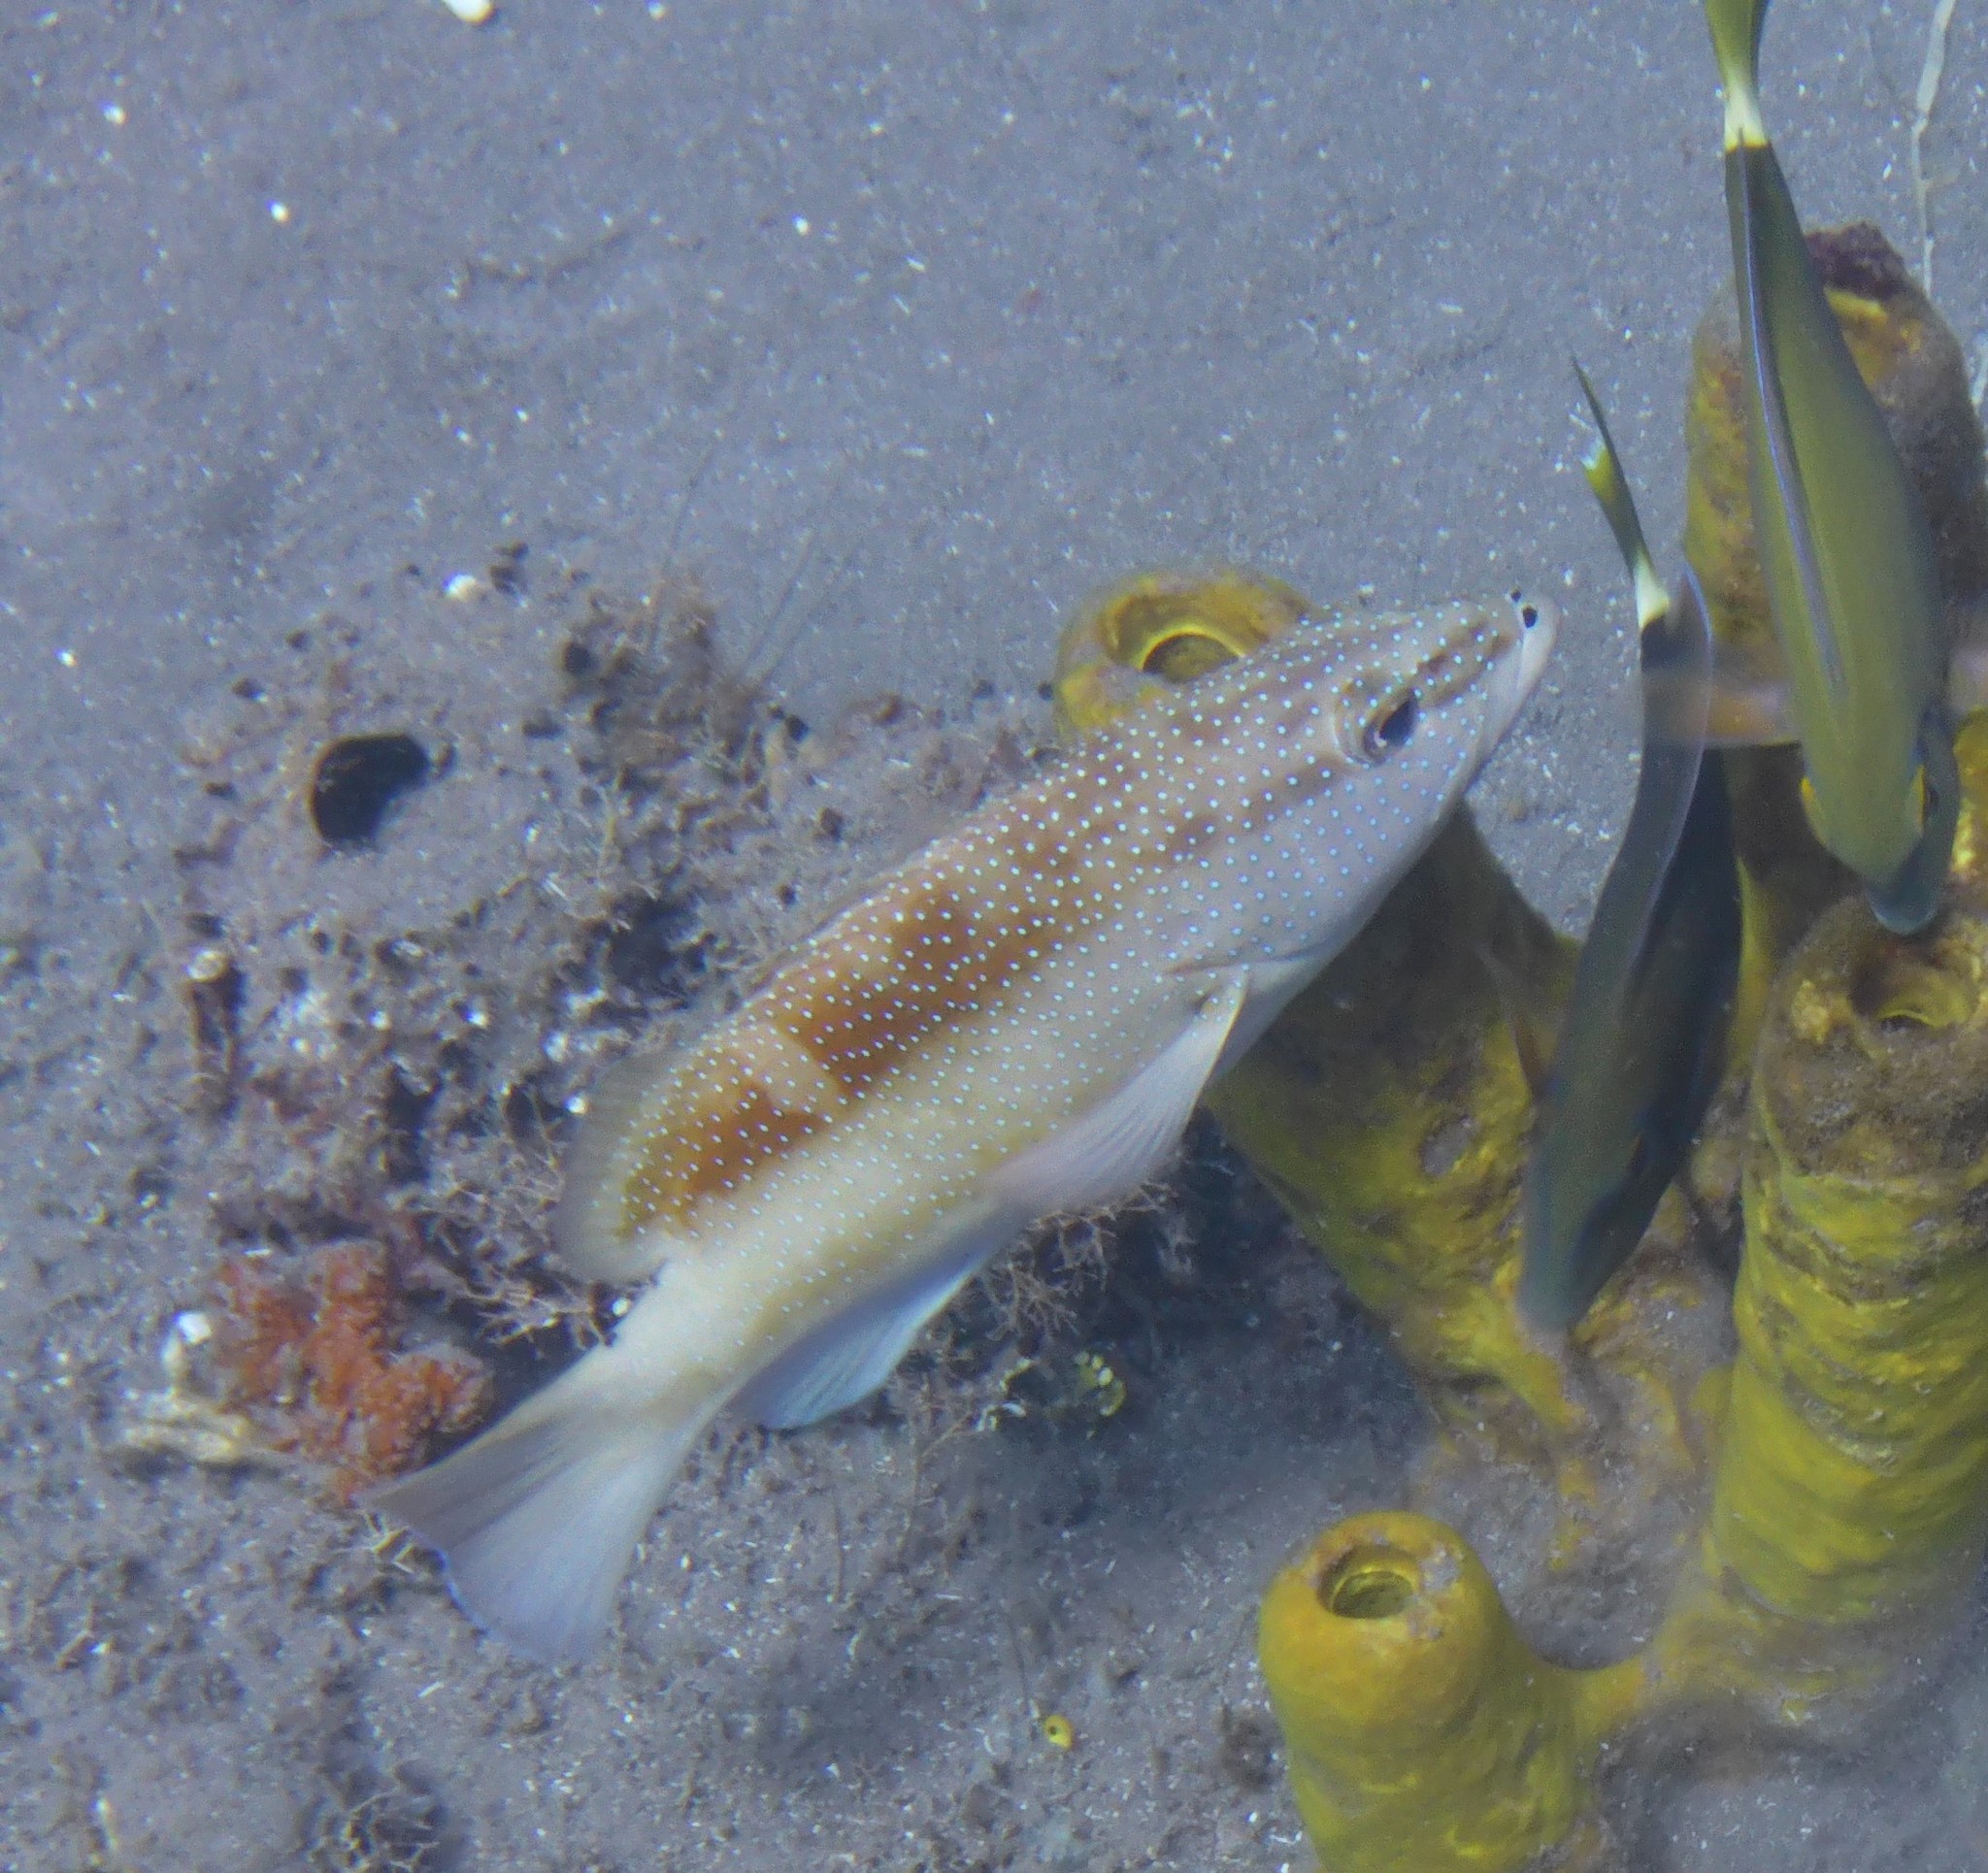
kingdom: Animalia
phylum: Chordata
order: Perciformes
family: Serranidae
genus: Cephalopholis
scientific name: Cephalopholis fulva
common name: Butterfish
